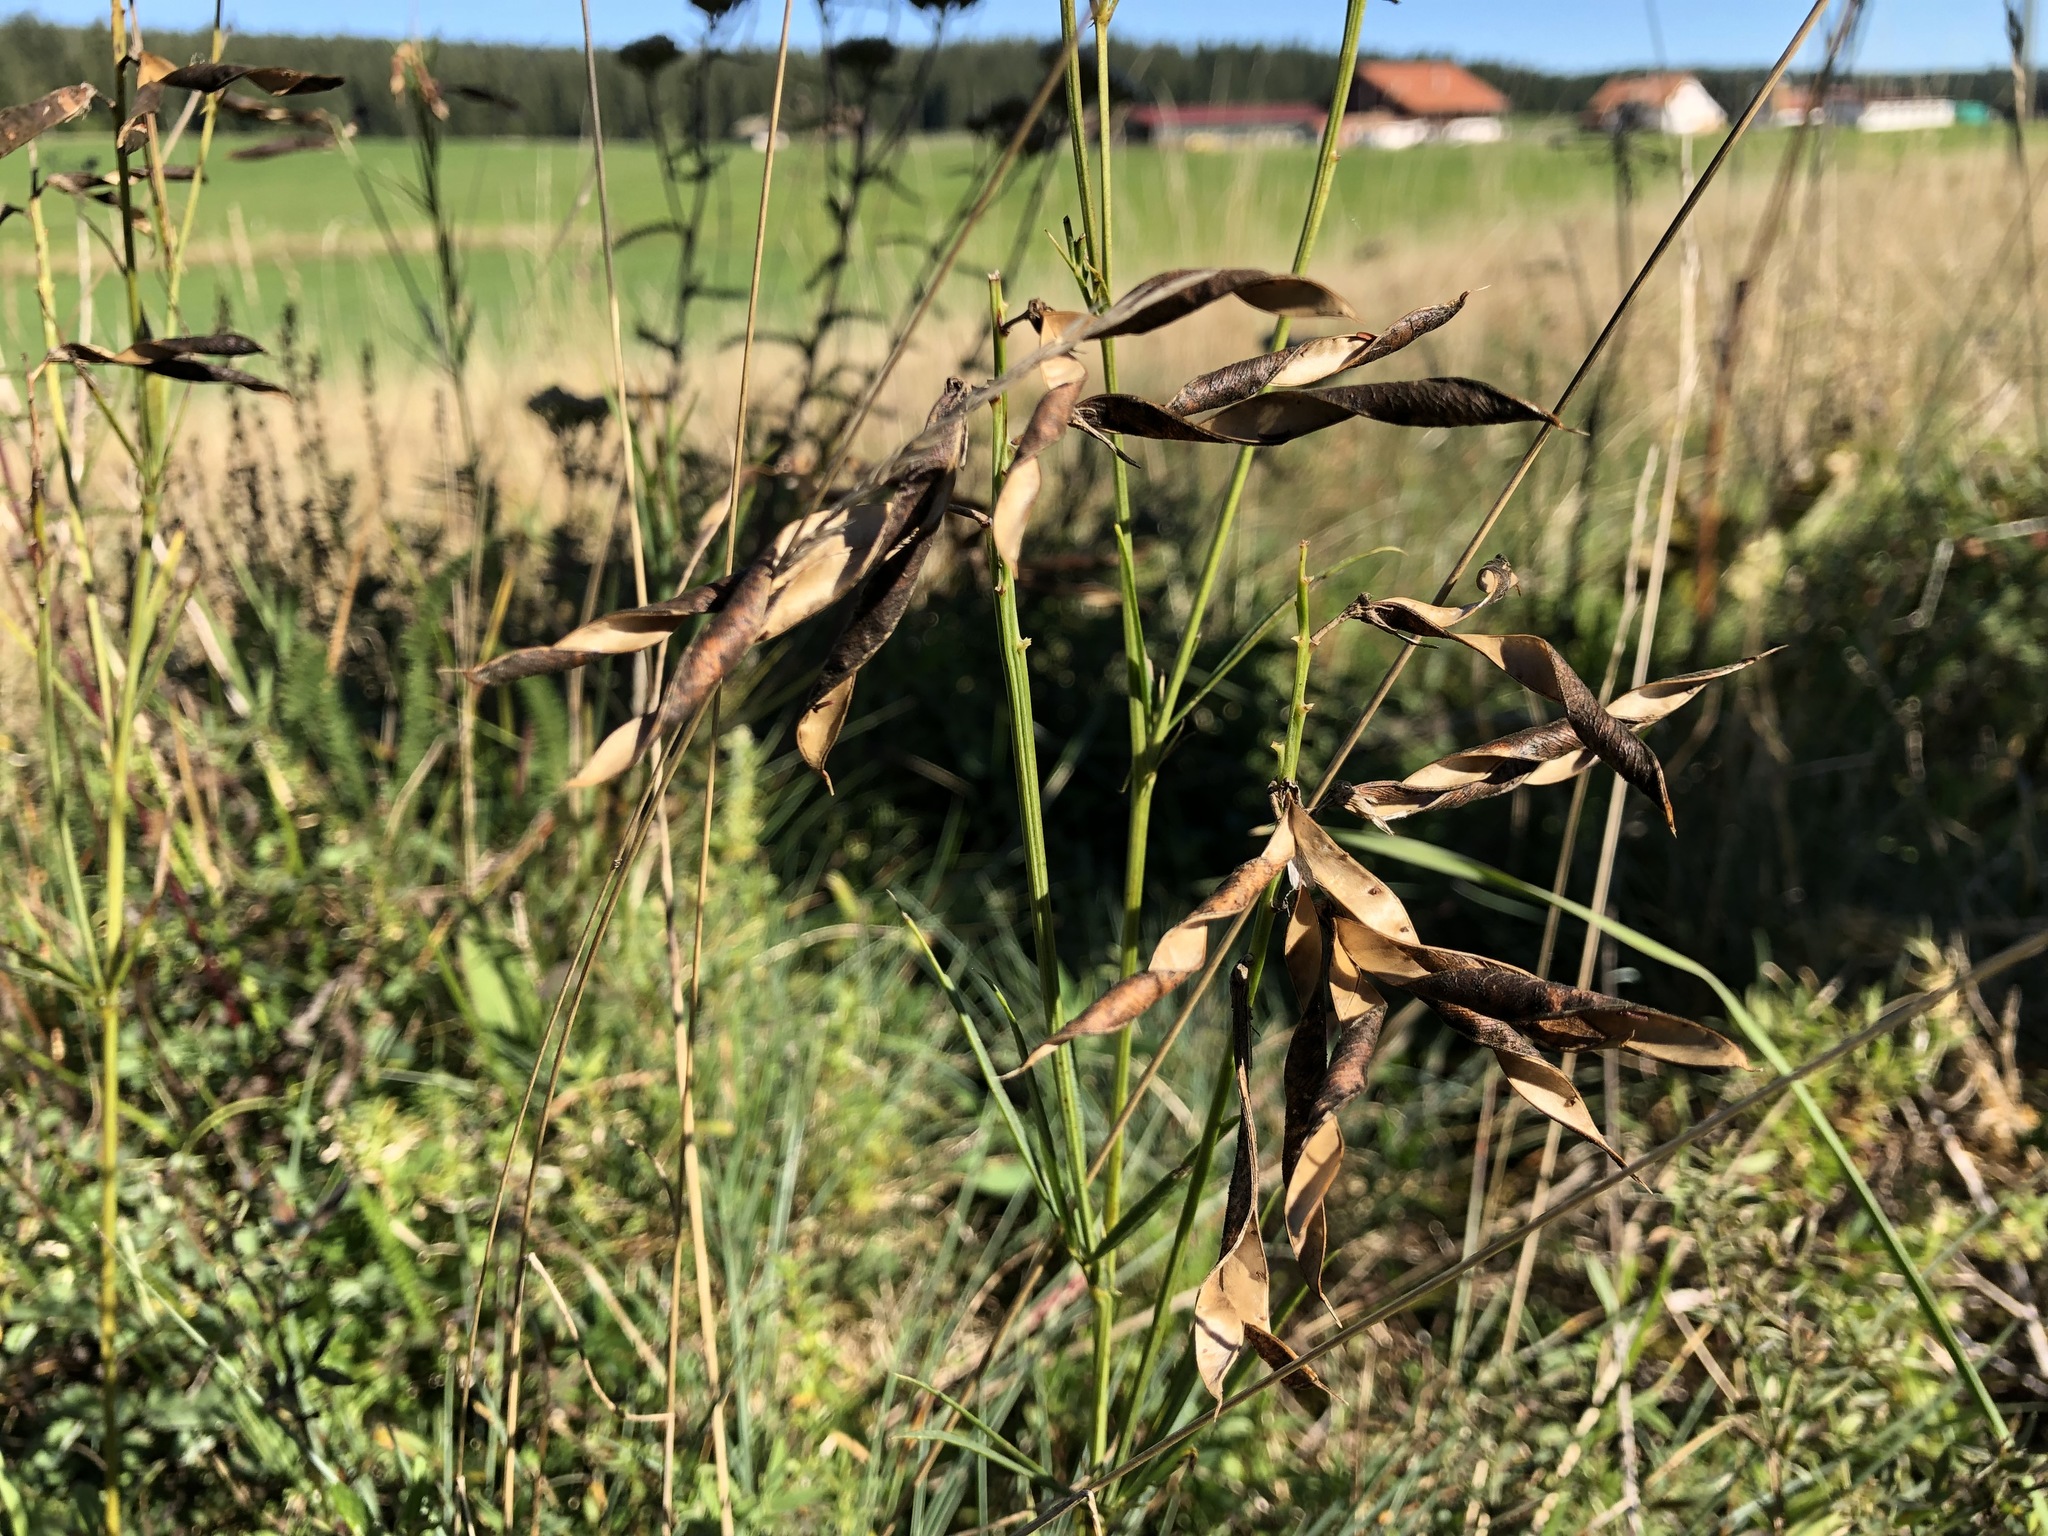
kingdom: Plantae
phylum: Tracheophyta
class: Magnoliopsida
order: Fabales
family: Fabaceae
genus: Lathyrus
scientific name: Lathyrus bauhini
